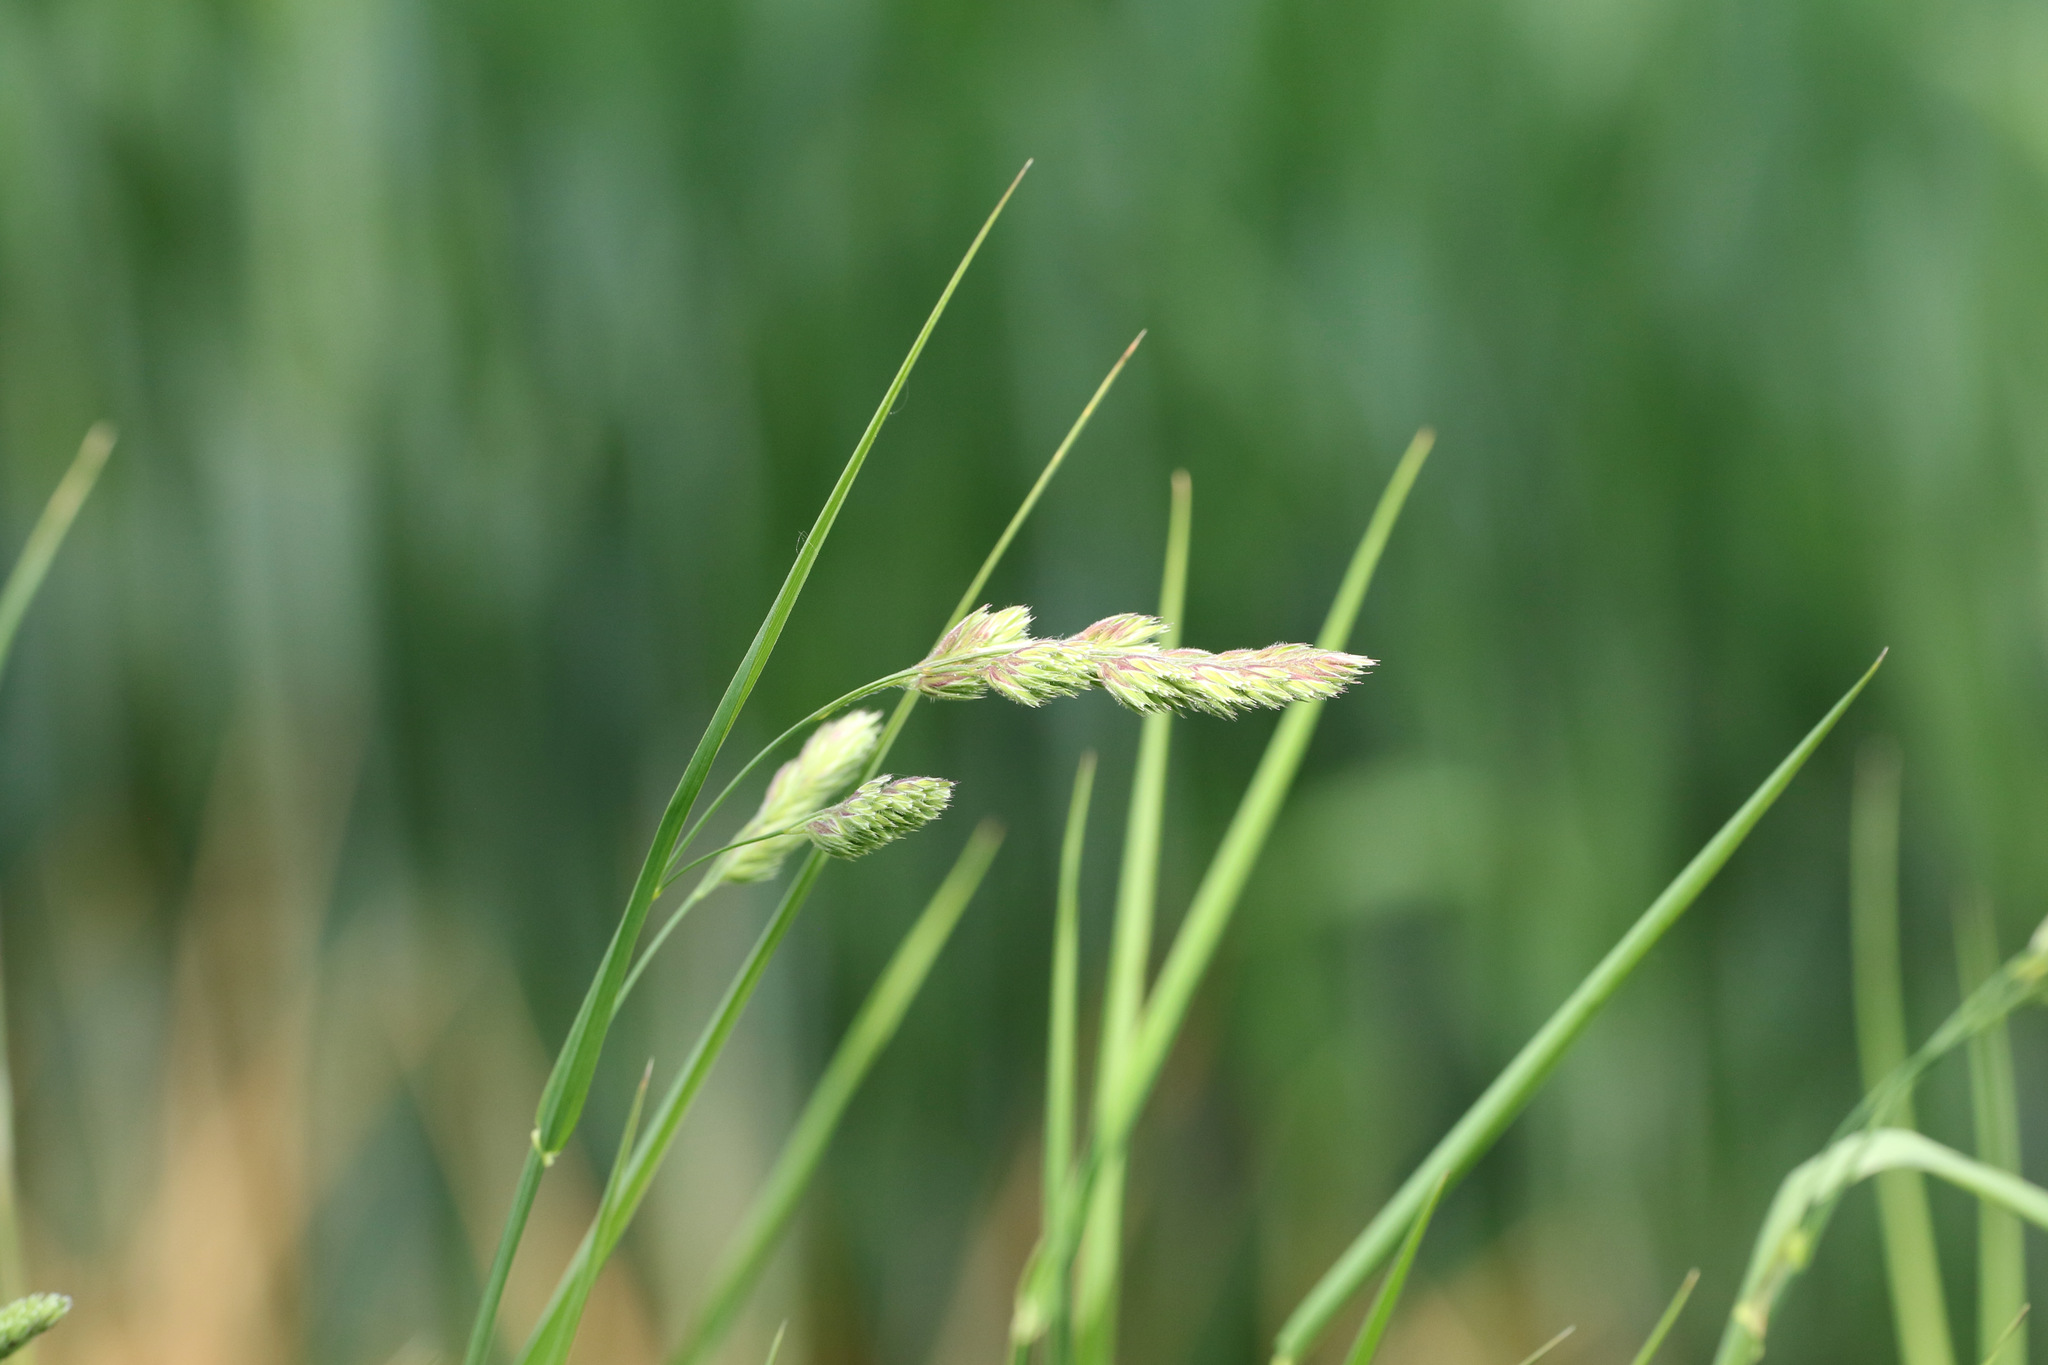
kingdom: Plantae
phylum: Tracheophyta
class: Liliopsida
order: Poales
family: Poaceae
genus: Dactylis
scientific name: Dactylis glomerata
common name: Orchardgrass
